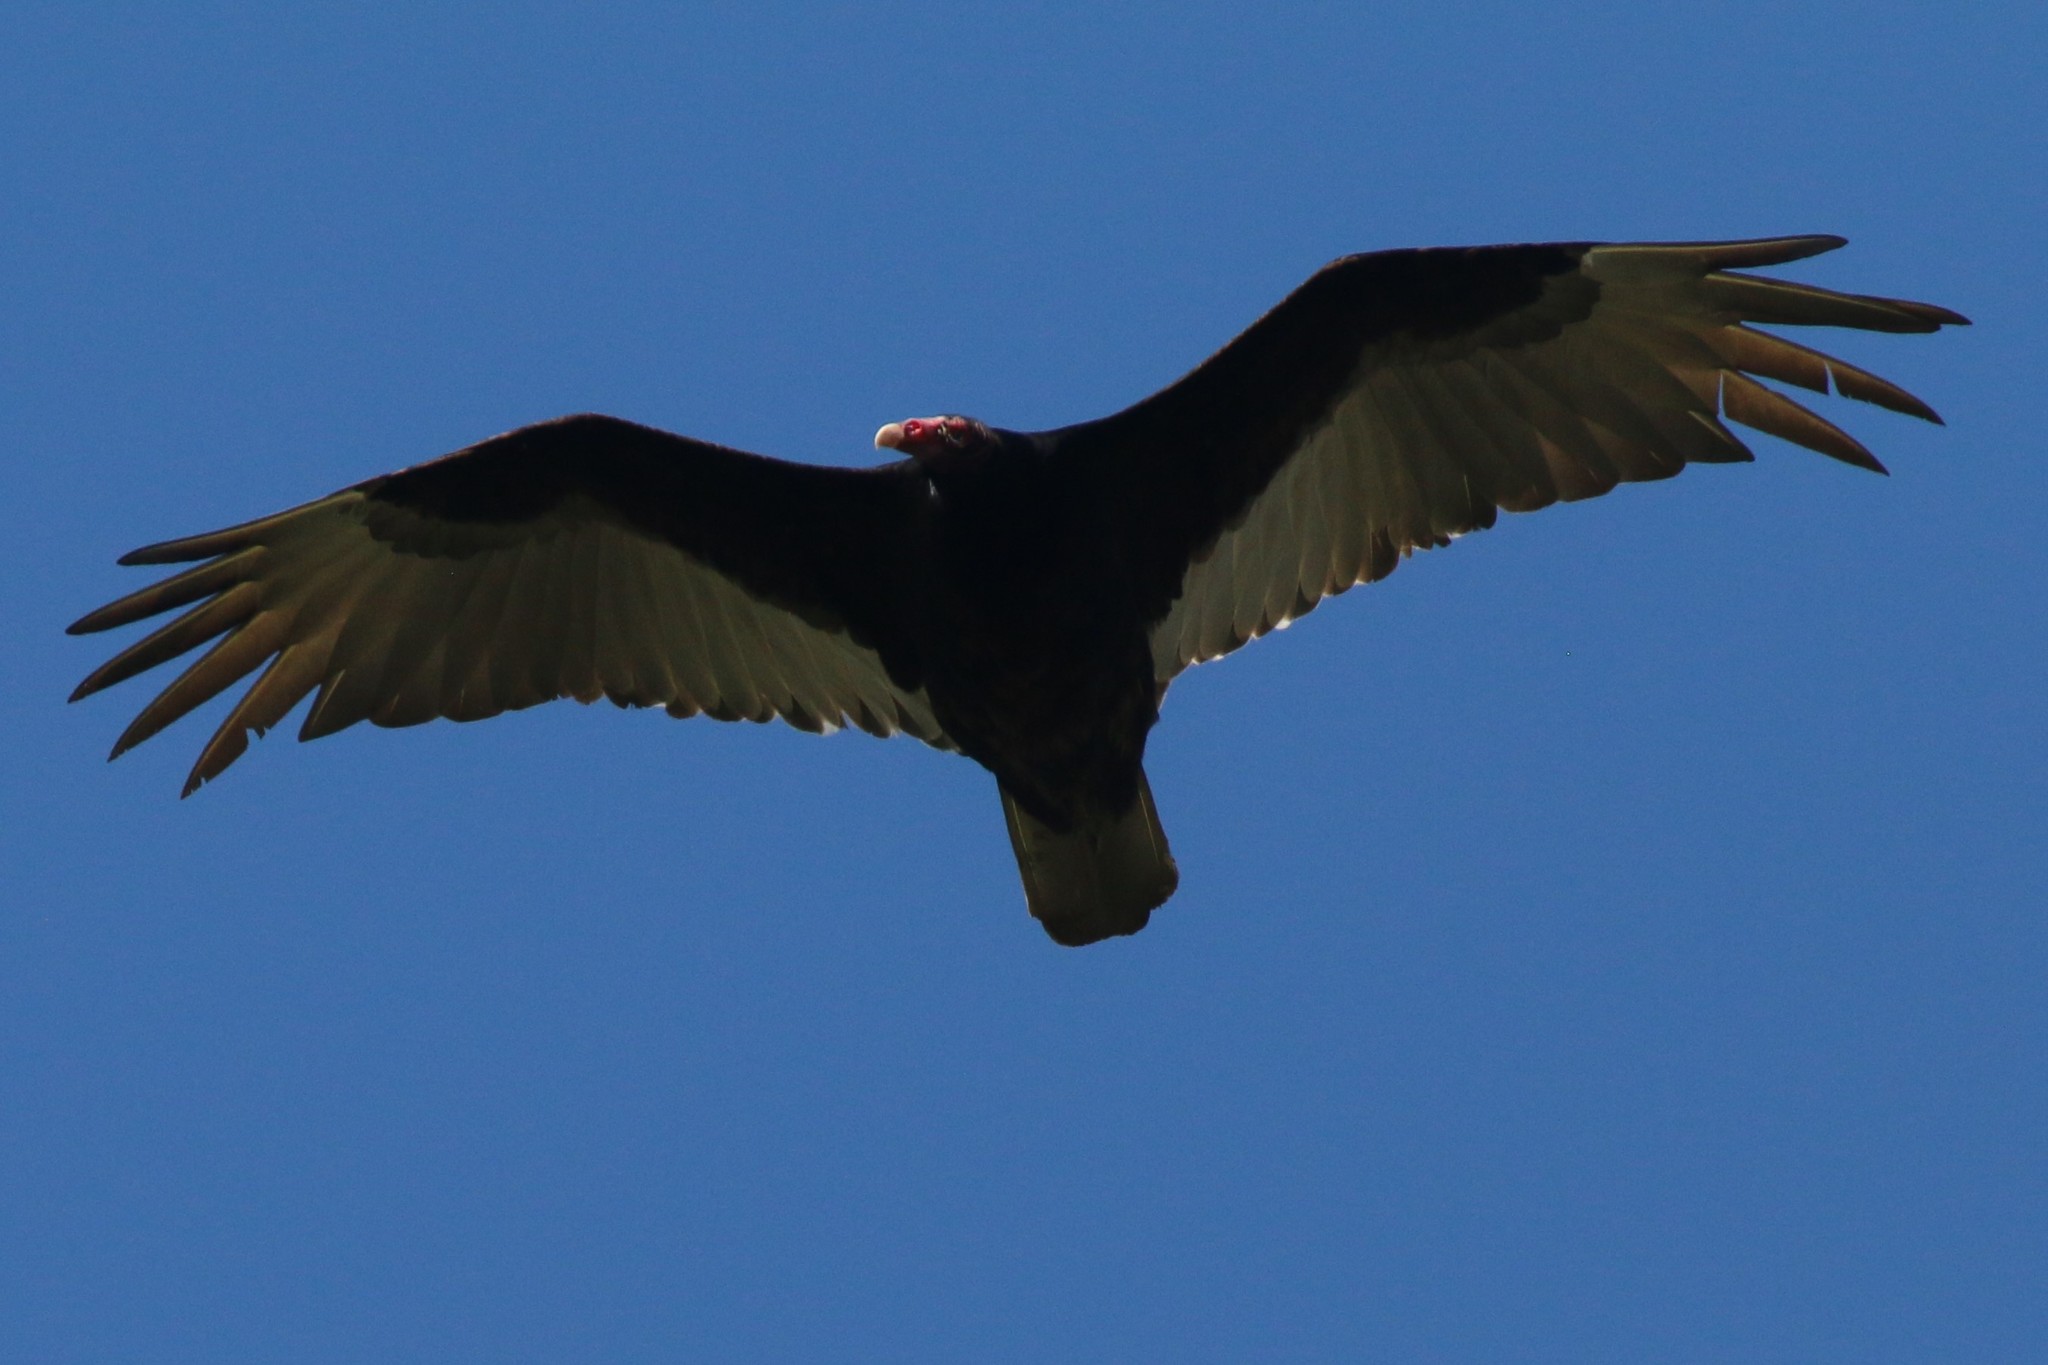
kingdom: Animalia
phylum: Chordata
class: Aves
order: Accipitriformes
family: Cathartidae
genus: Cathartes
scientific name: Cathartes aura
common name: Turkey vulture
